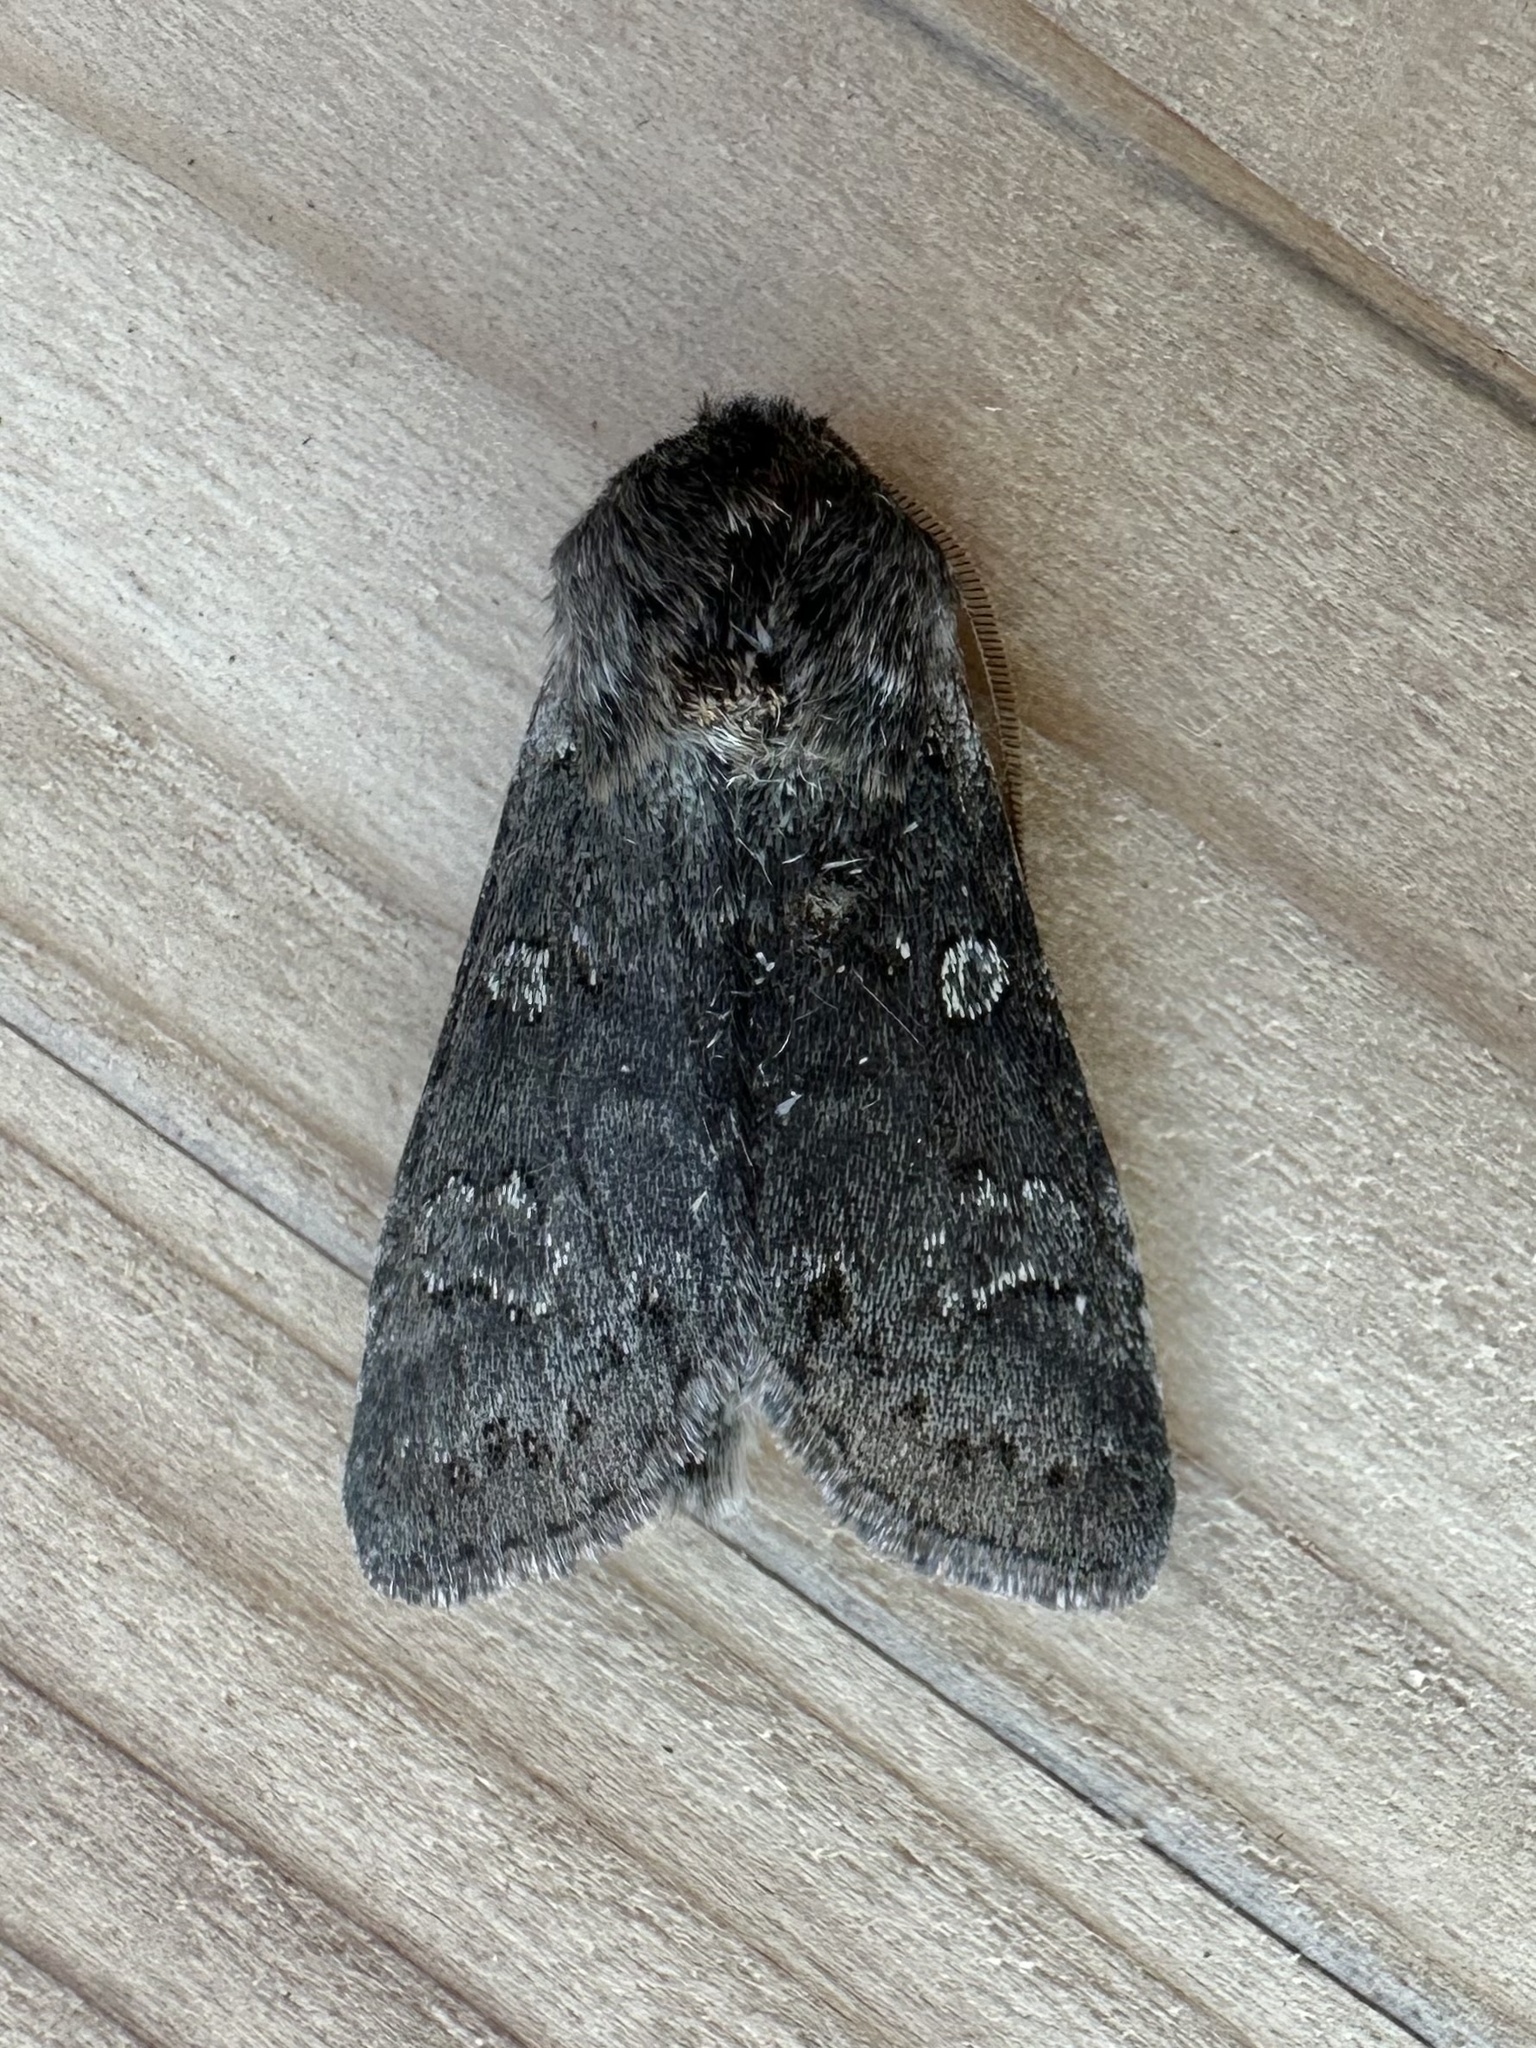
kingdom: Animalia
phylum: Arthropoda
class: Insecta
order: Lepidoptera
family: Noctuidae
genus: Psaphida
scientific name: Psaphida rolandi
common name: Roland's sallow
